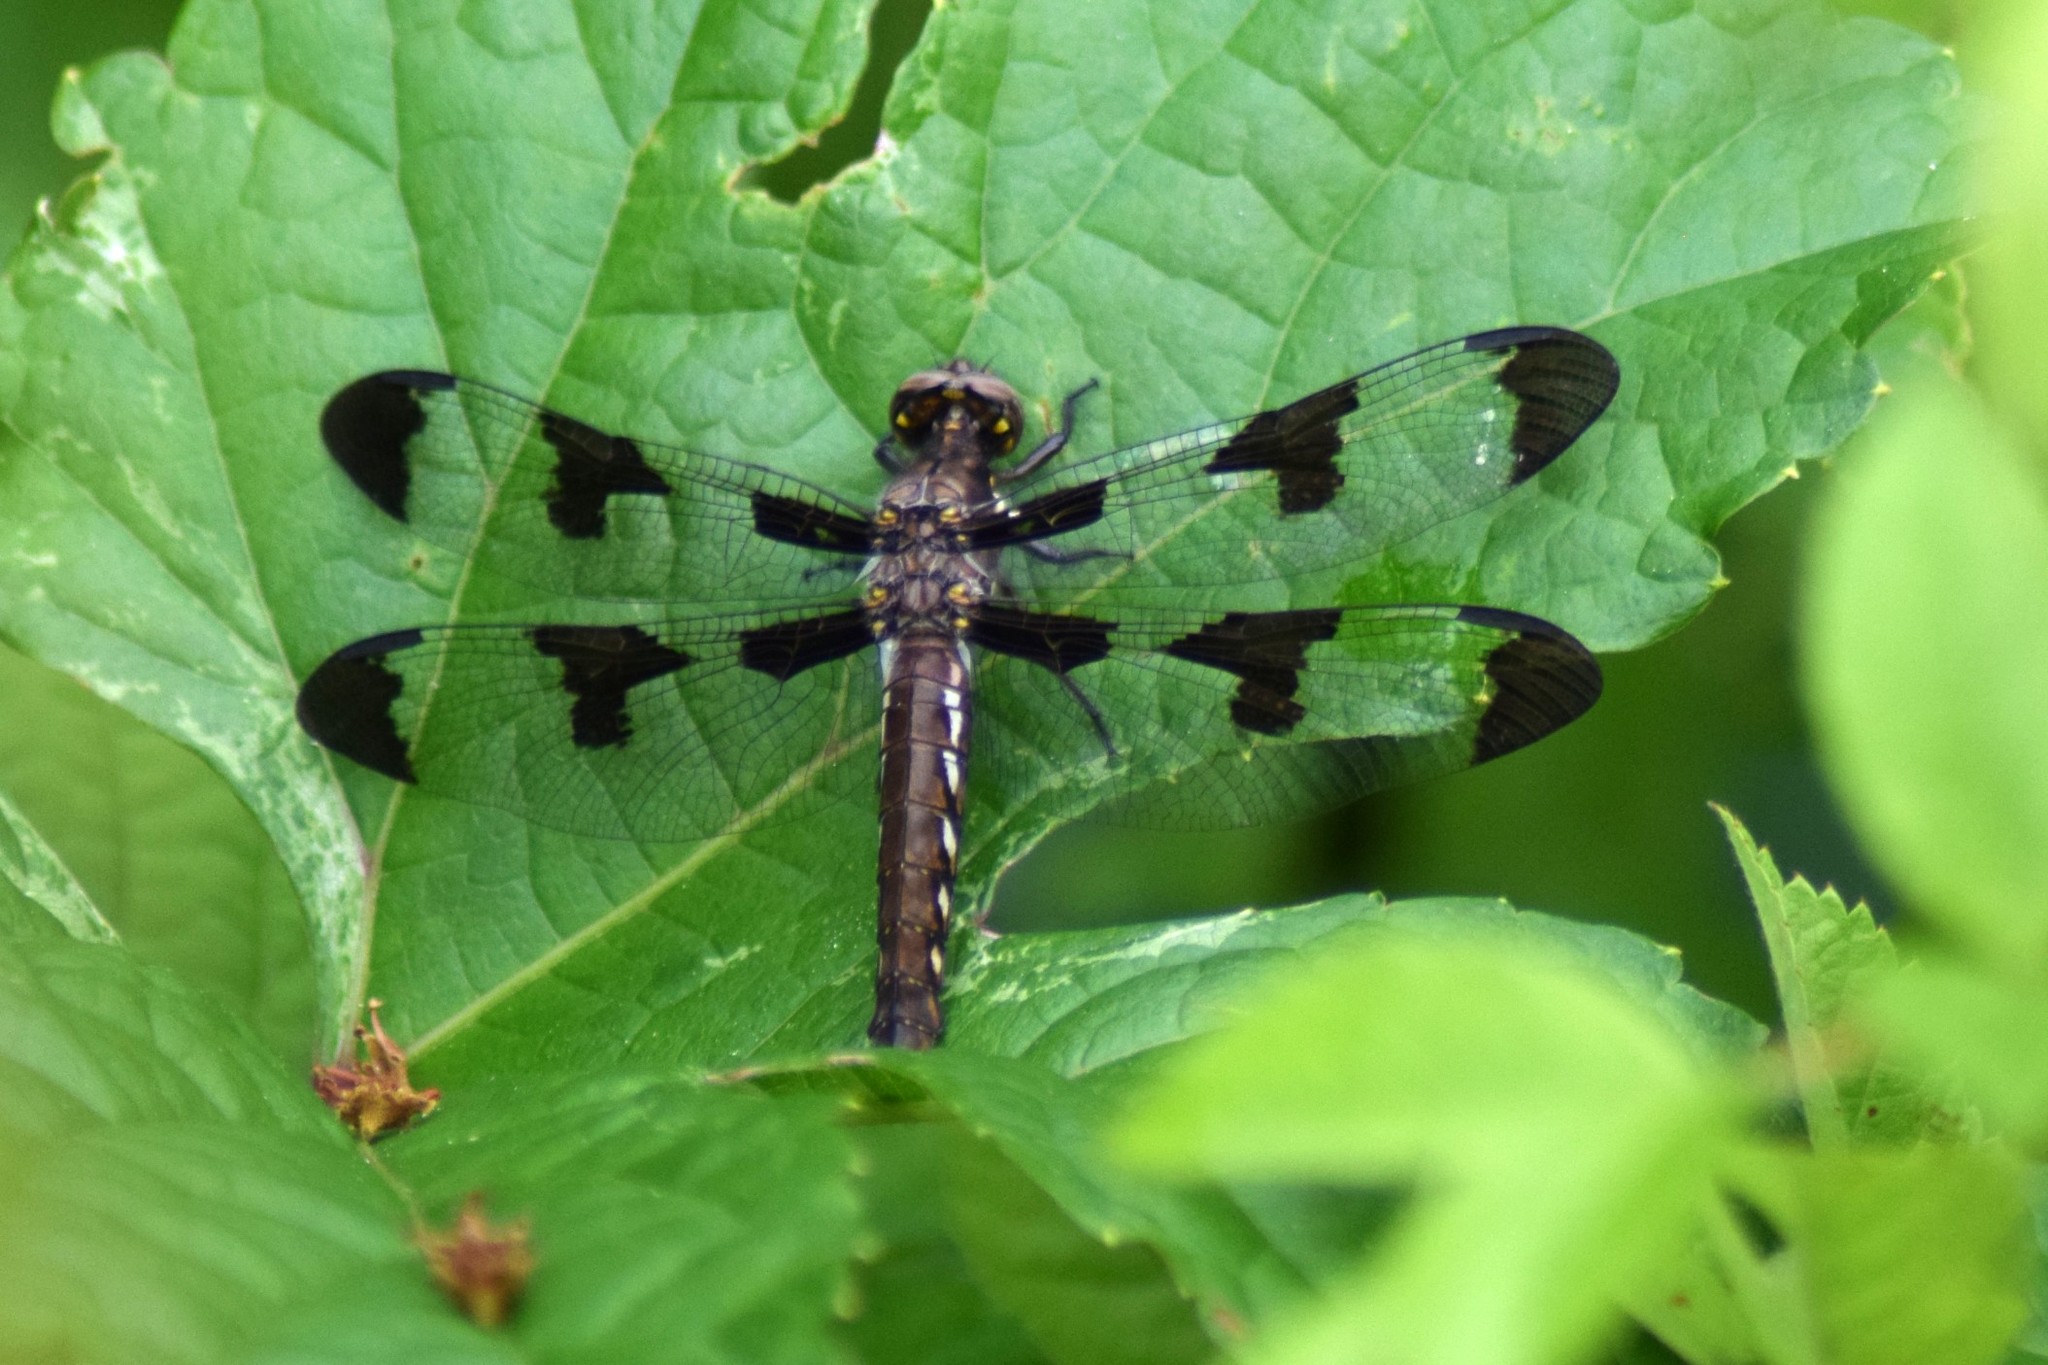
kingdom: Animalia
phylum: Arthropoda
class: Insecta
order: Odonata
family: Libellulidae
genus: Plathemis
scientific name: Plathemis lydia
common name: Common whitetail
